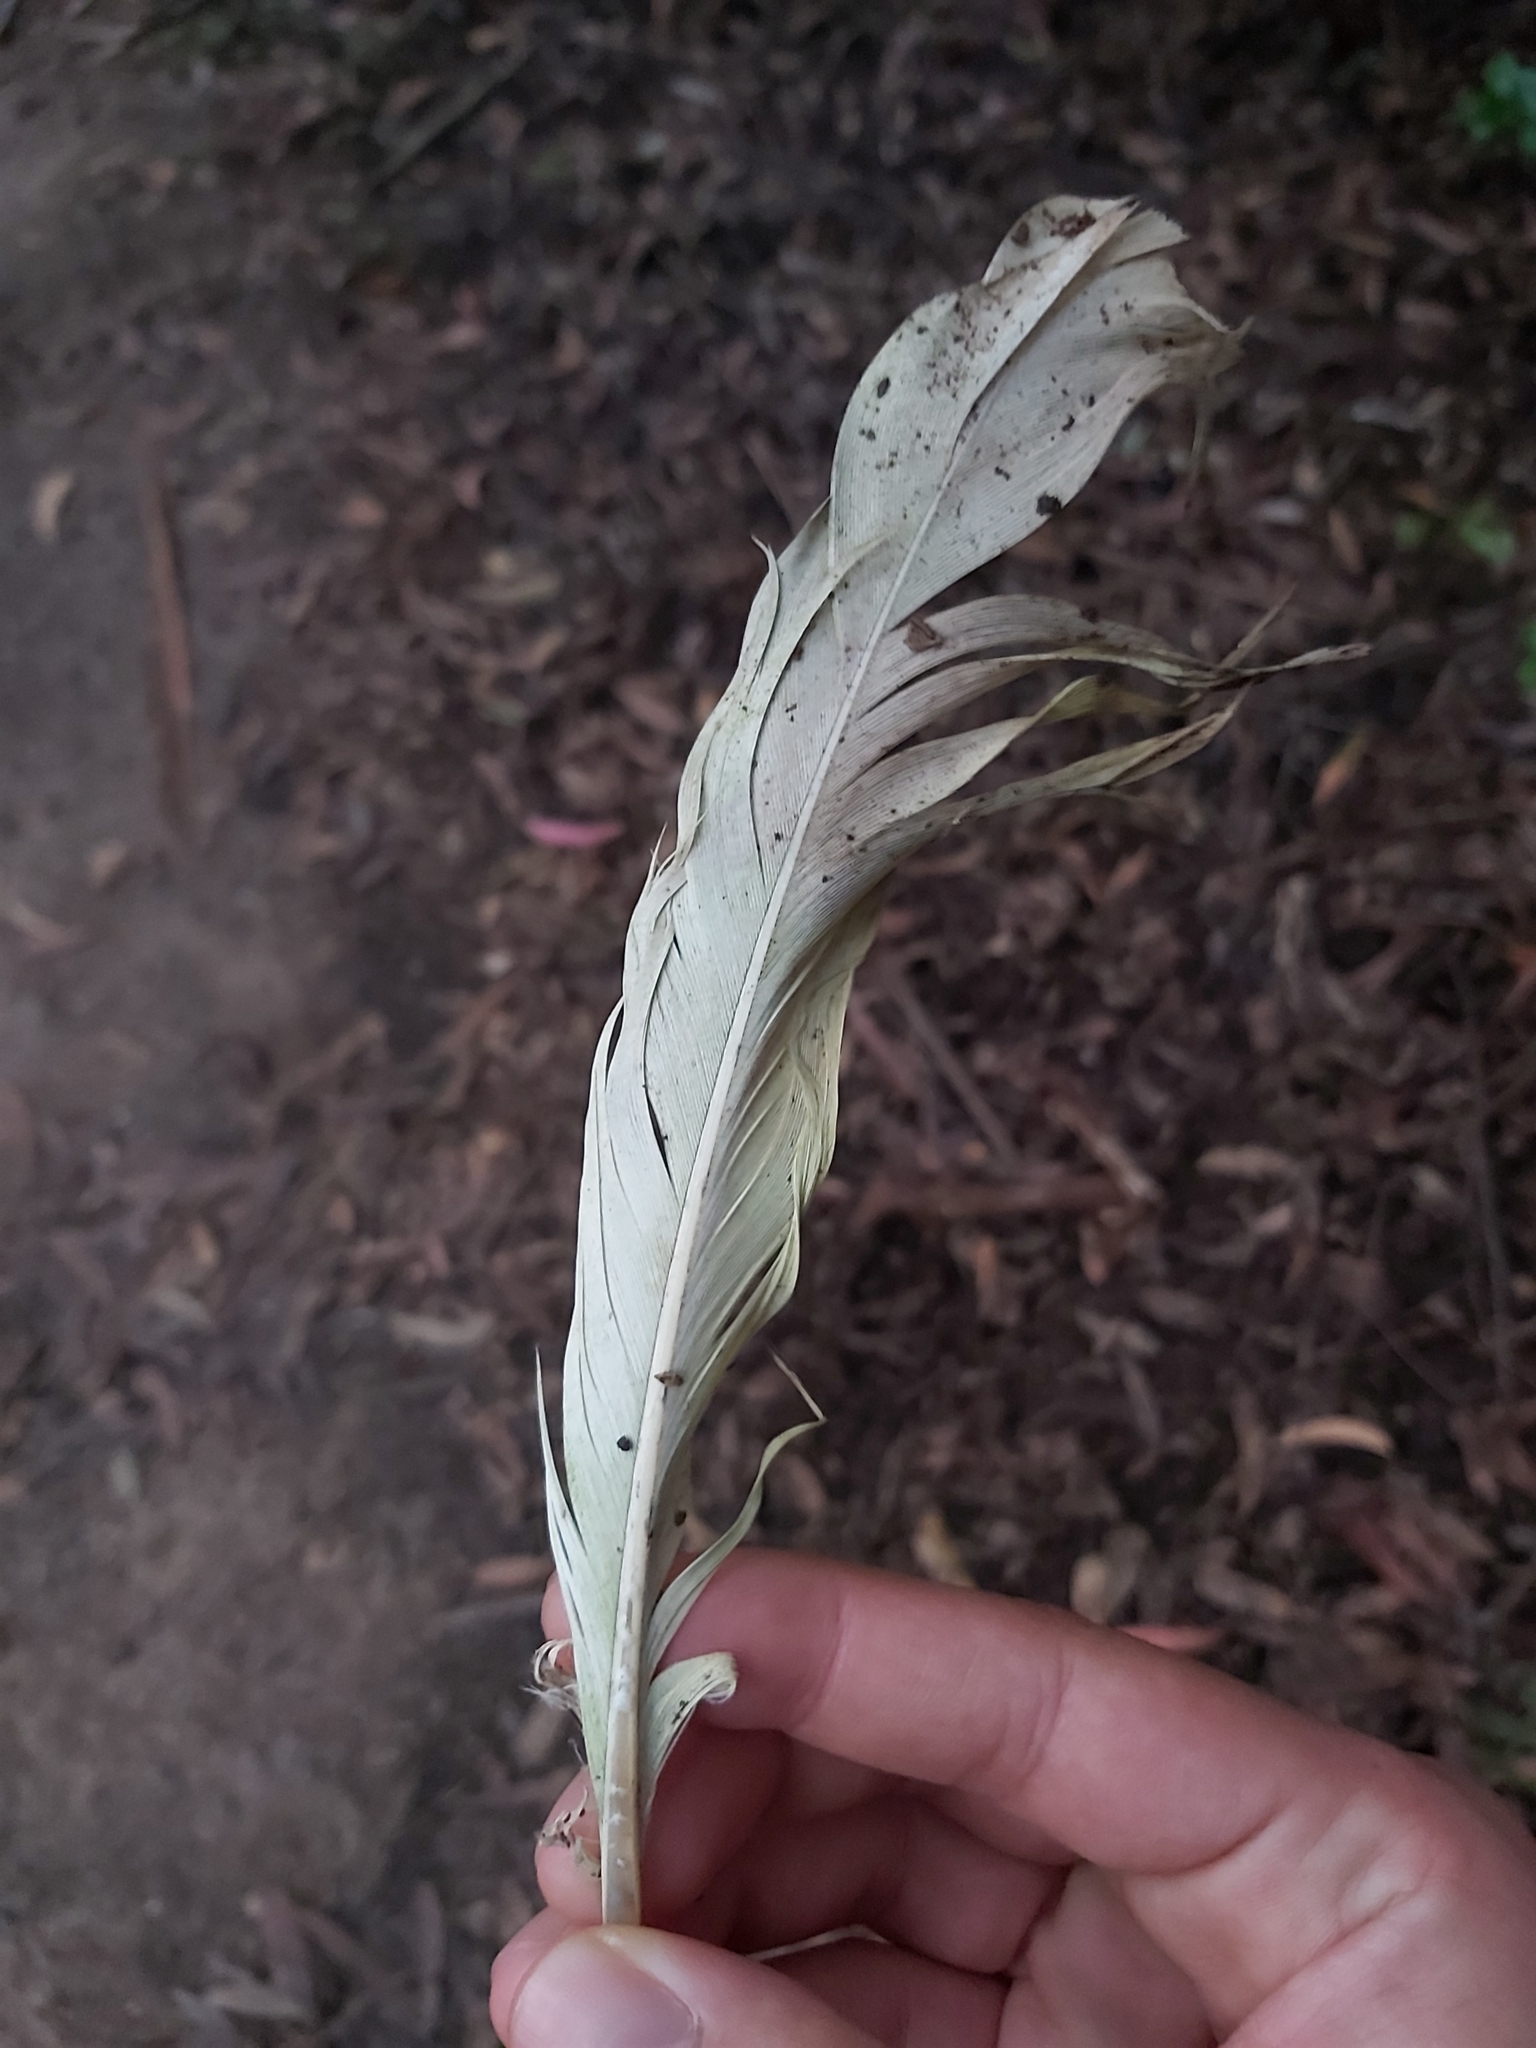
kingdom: Animalia
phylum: Chordata
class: Aves
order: Psittaciformes
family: Psittacidae
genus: Cacatua
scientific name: Cacatua galerita
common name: Sulphur-crested cockatoo
